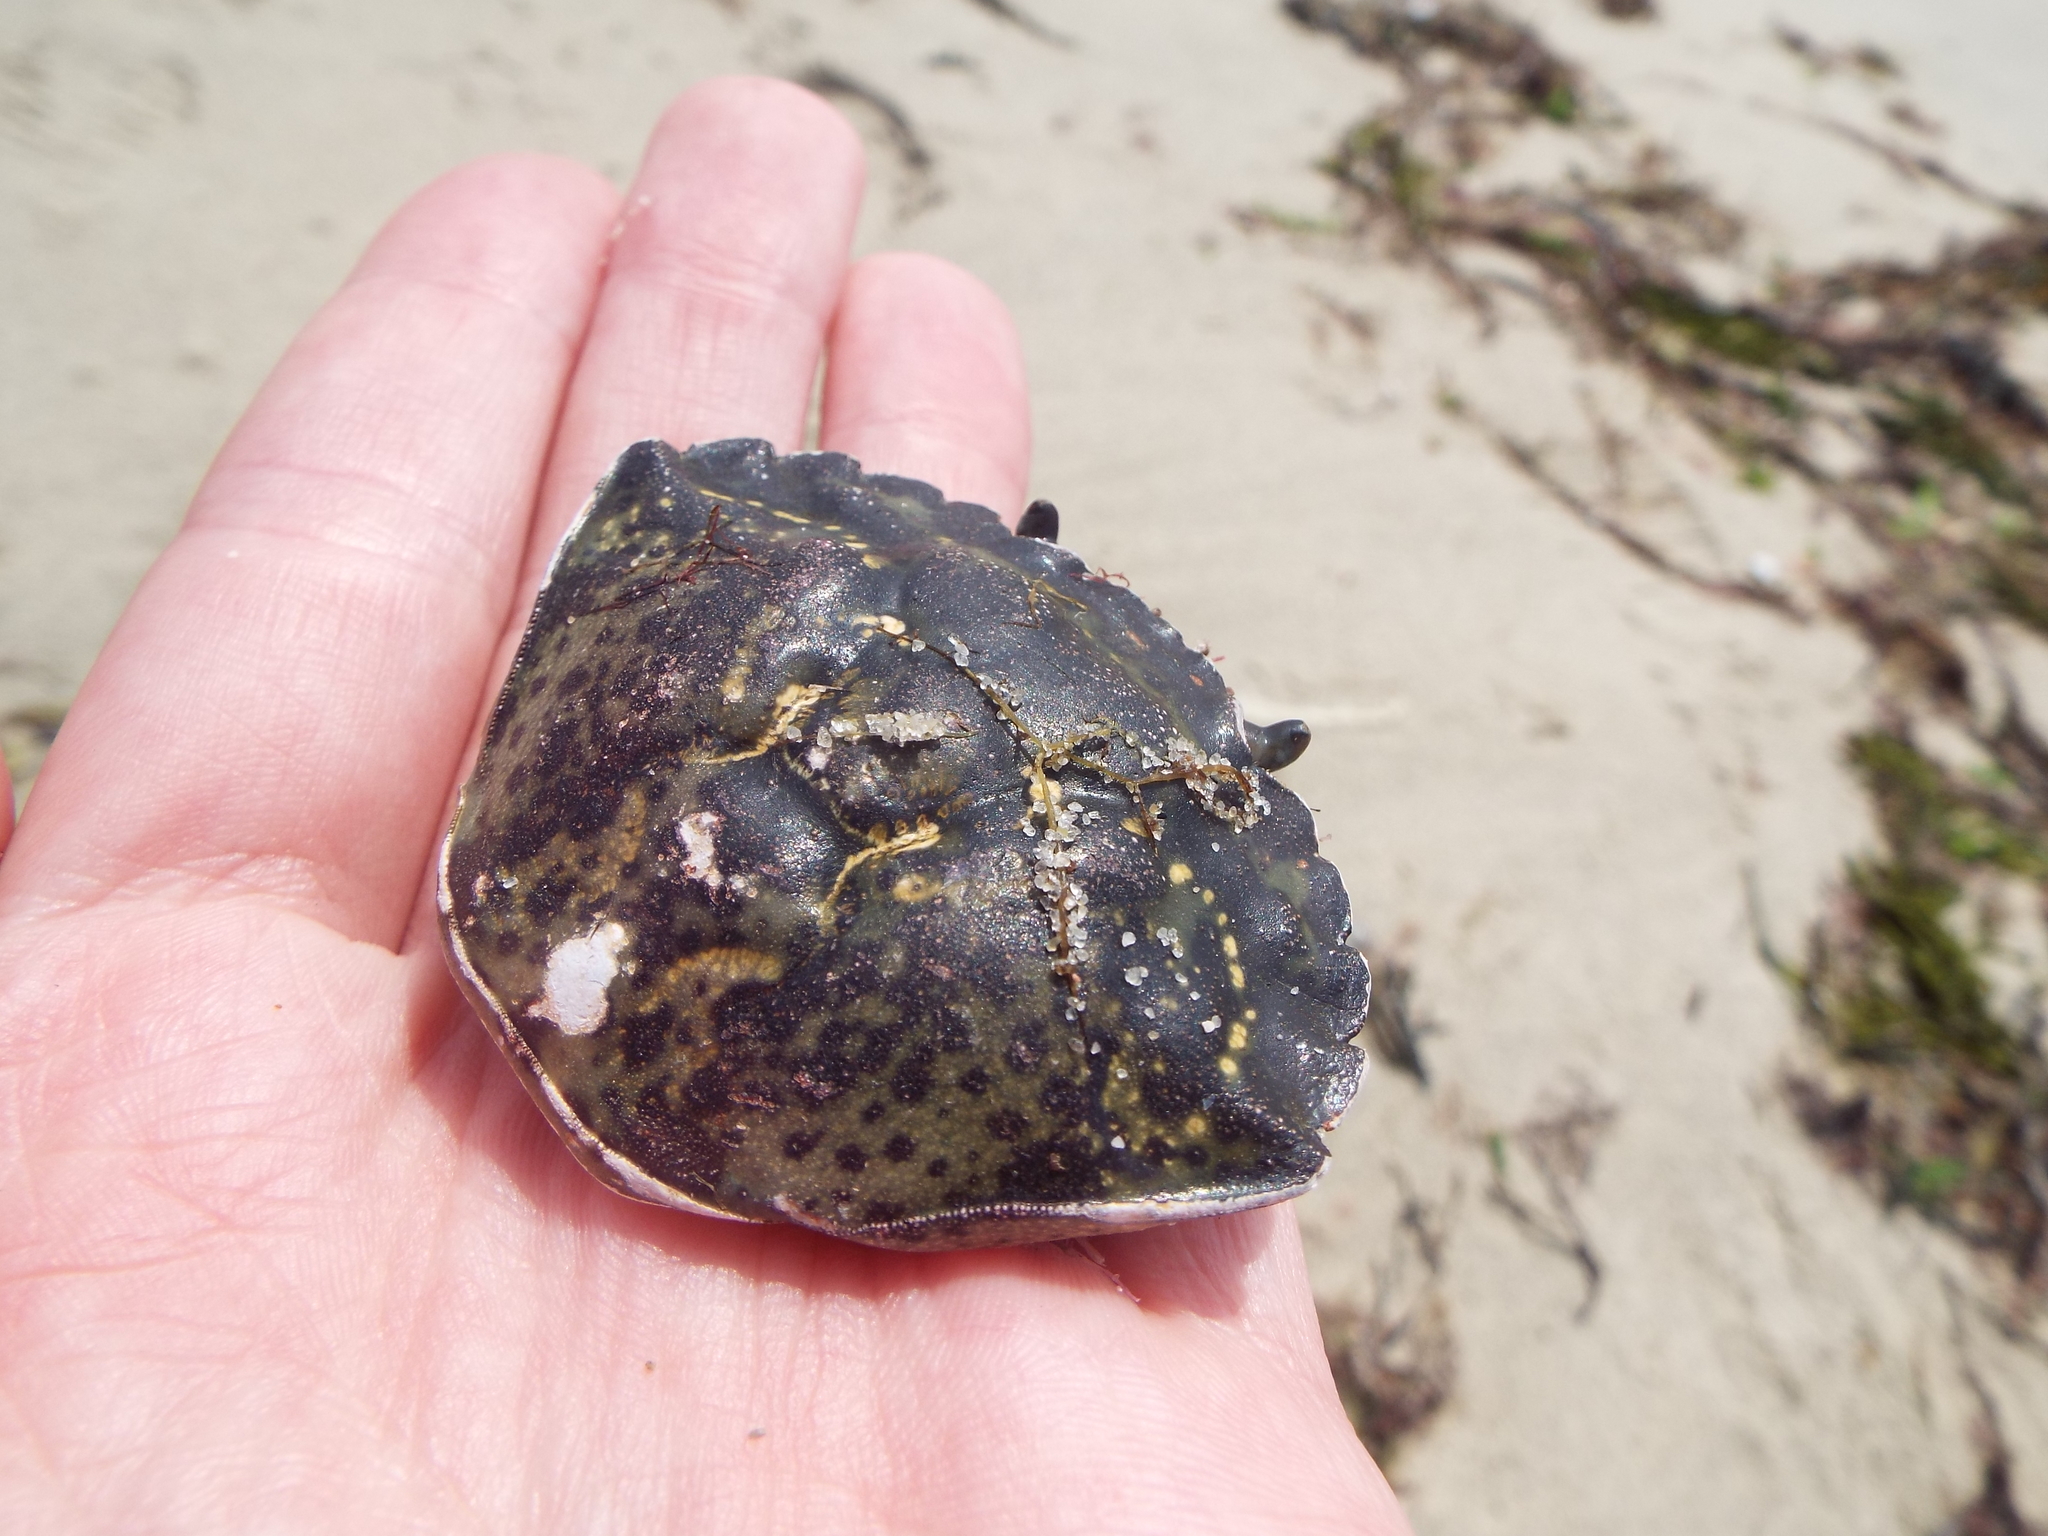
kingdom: Animalia
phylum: Arthropoda
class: Malacostraca
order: Decapoda
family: Carcinidae
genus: Carcinus
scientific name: Carcinus maenas
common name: European green crab
